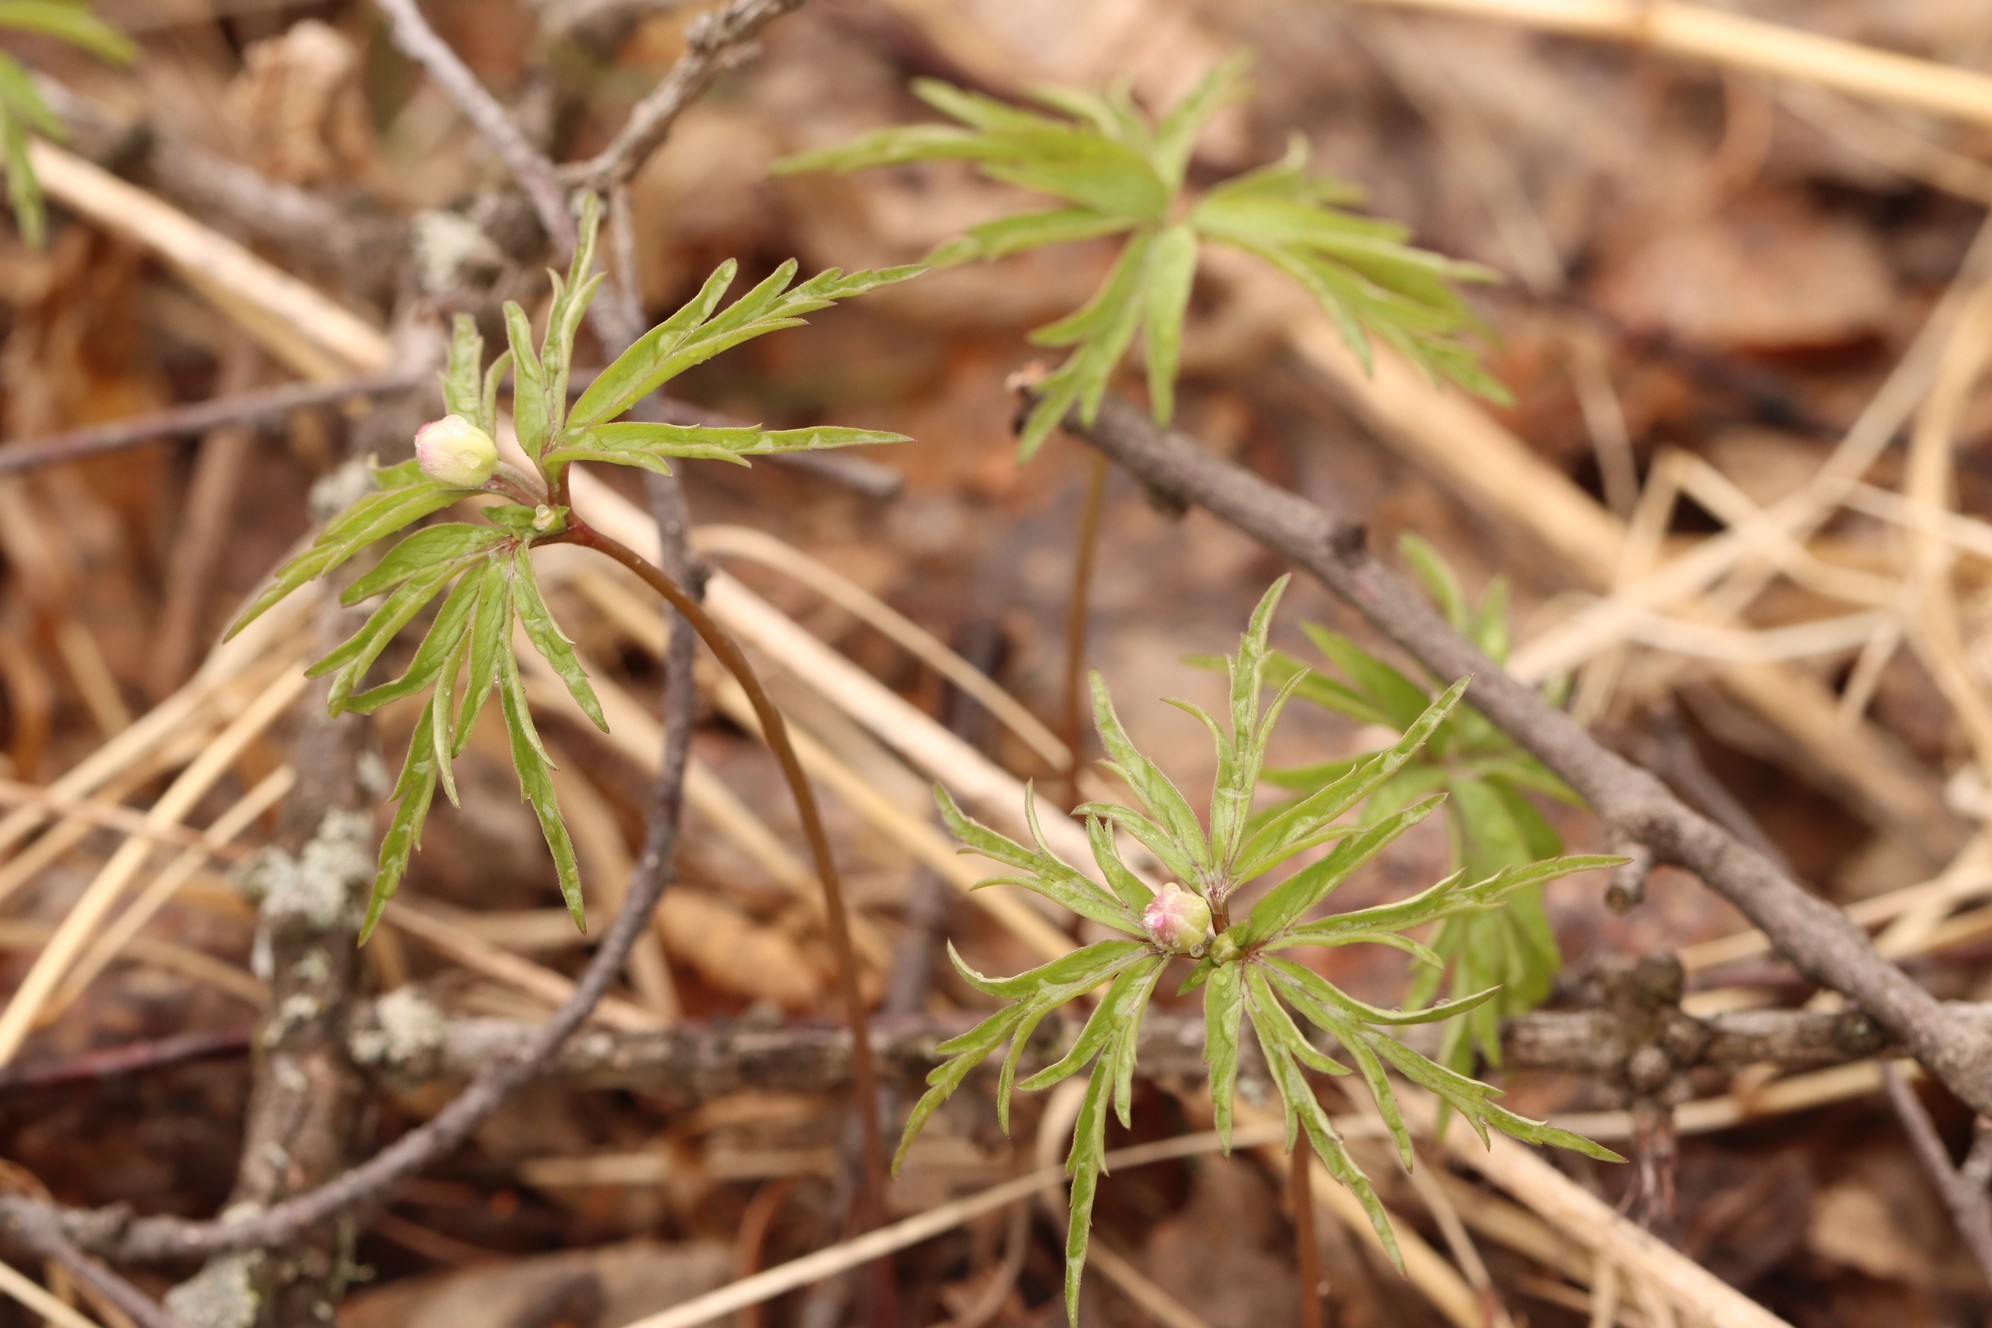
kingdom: Plantae
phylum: Tracheophyta
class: Magnoliopsida
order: Ranunculales
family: Ranunculaceae
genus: Anemone
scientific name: Anemone caerulea
